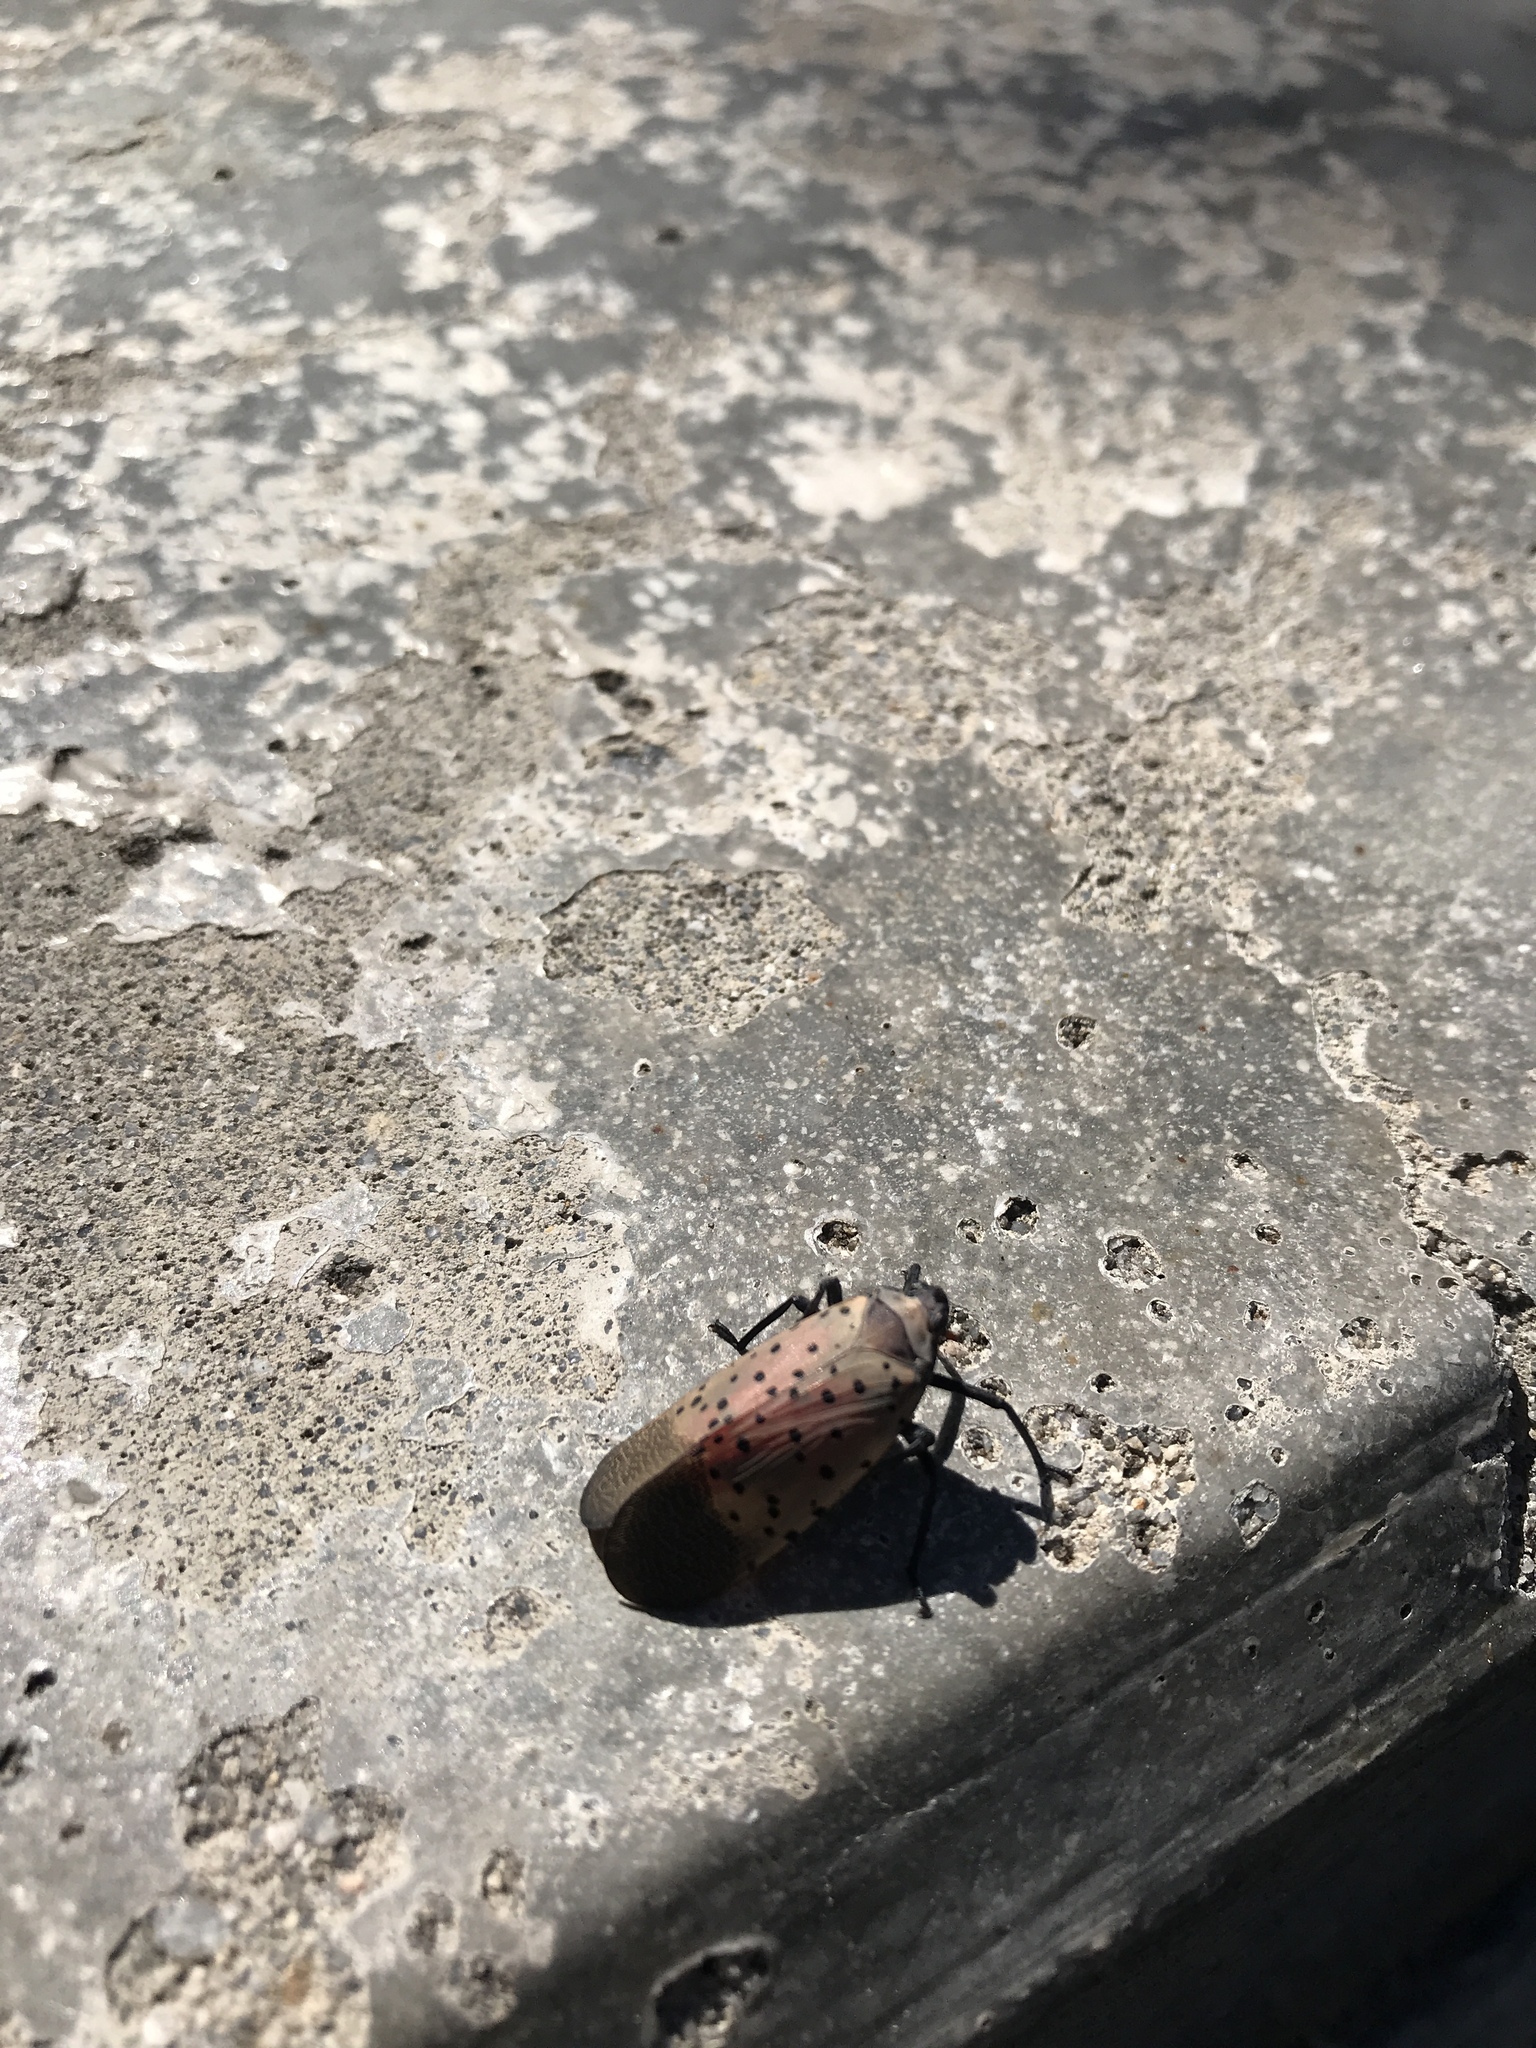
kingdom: Animalia
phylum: Arthropoda
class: Insecta
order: Hemiptera
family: Fulgoridae
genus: Lycorma
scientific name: Lycorma delicatula
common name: Spotted lanternfly
